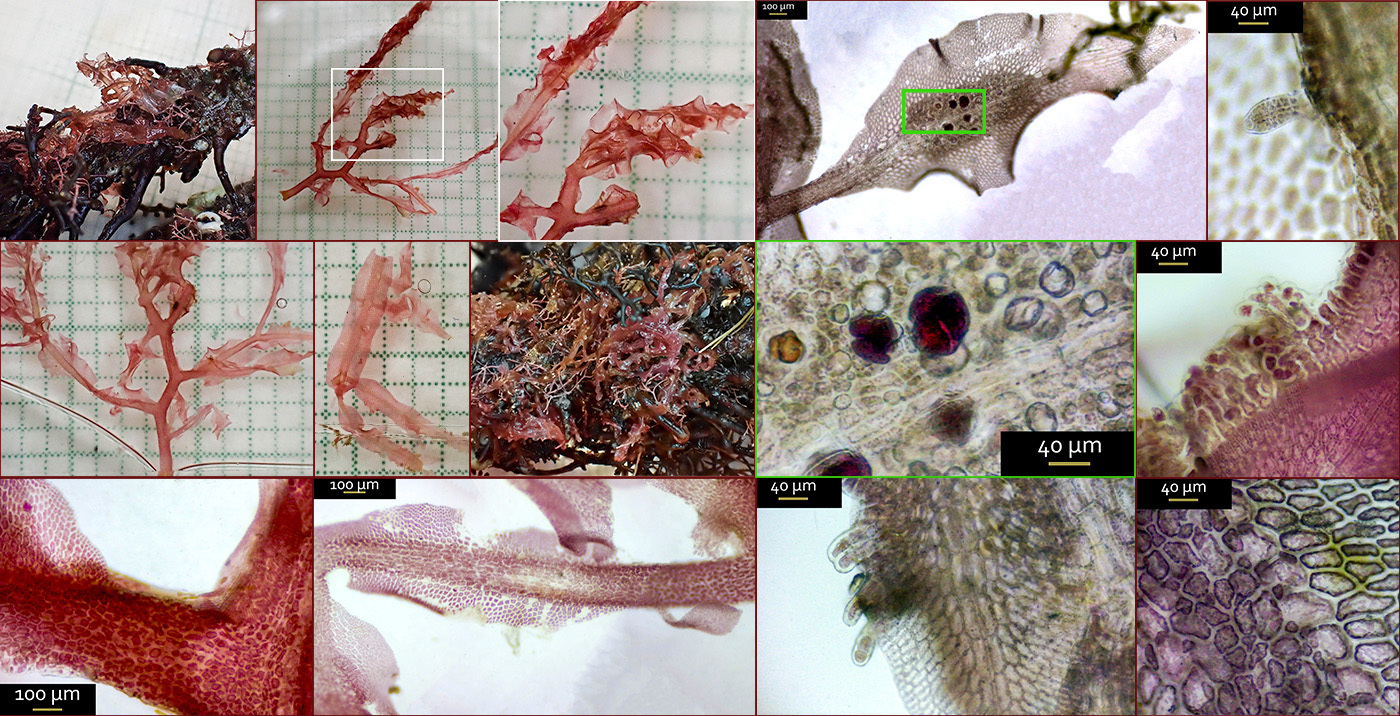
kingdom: Plantae
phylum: Rhodophyta
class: Florideophyceae
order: Ceramiales
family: Delesseriaceae
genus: Hypoglossum
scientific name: Hypoglossum hypoglossoides
